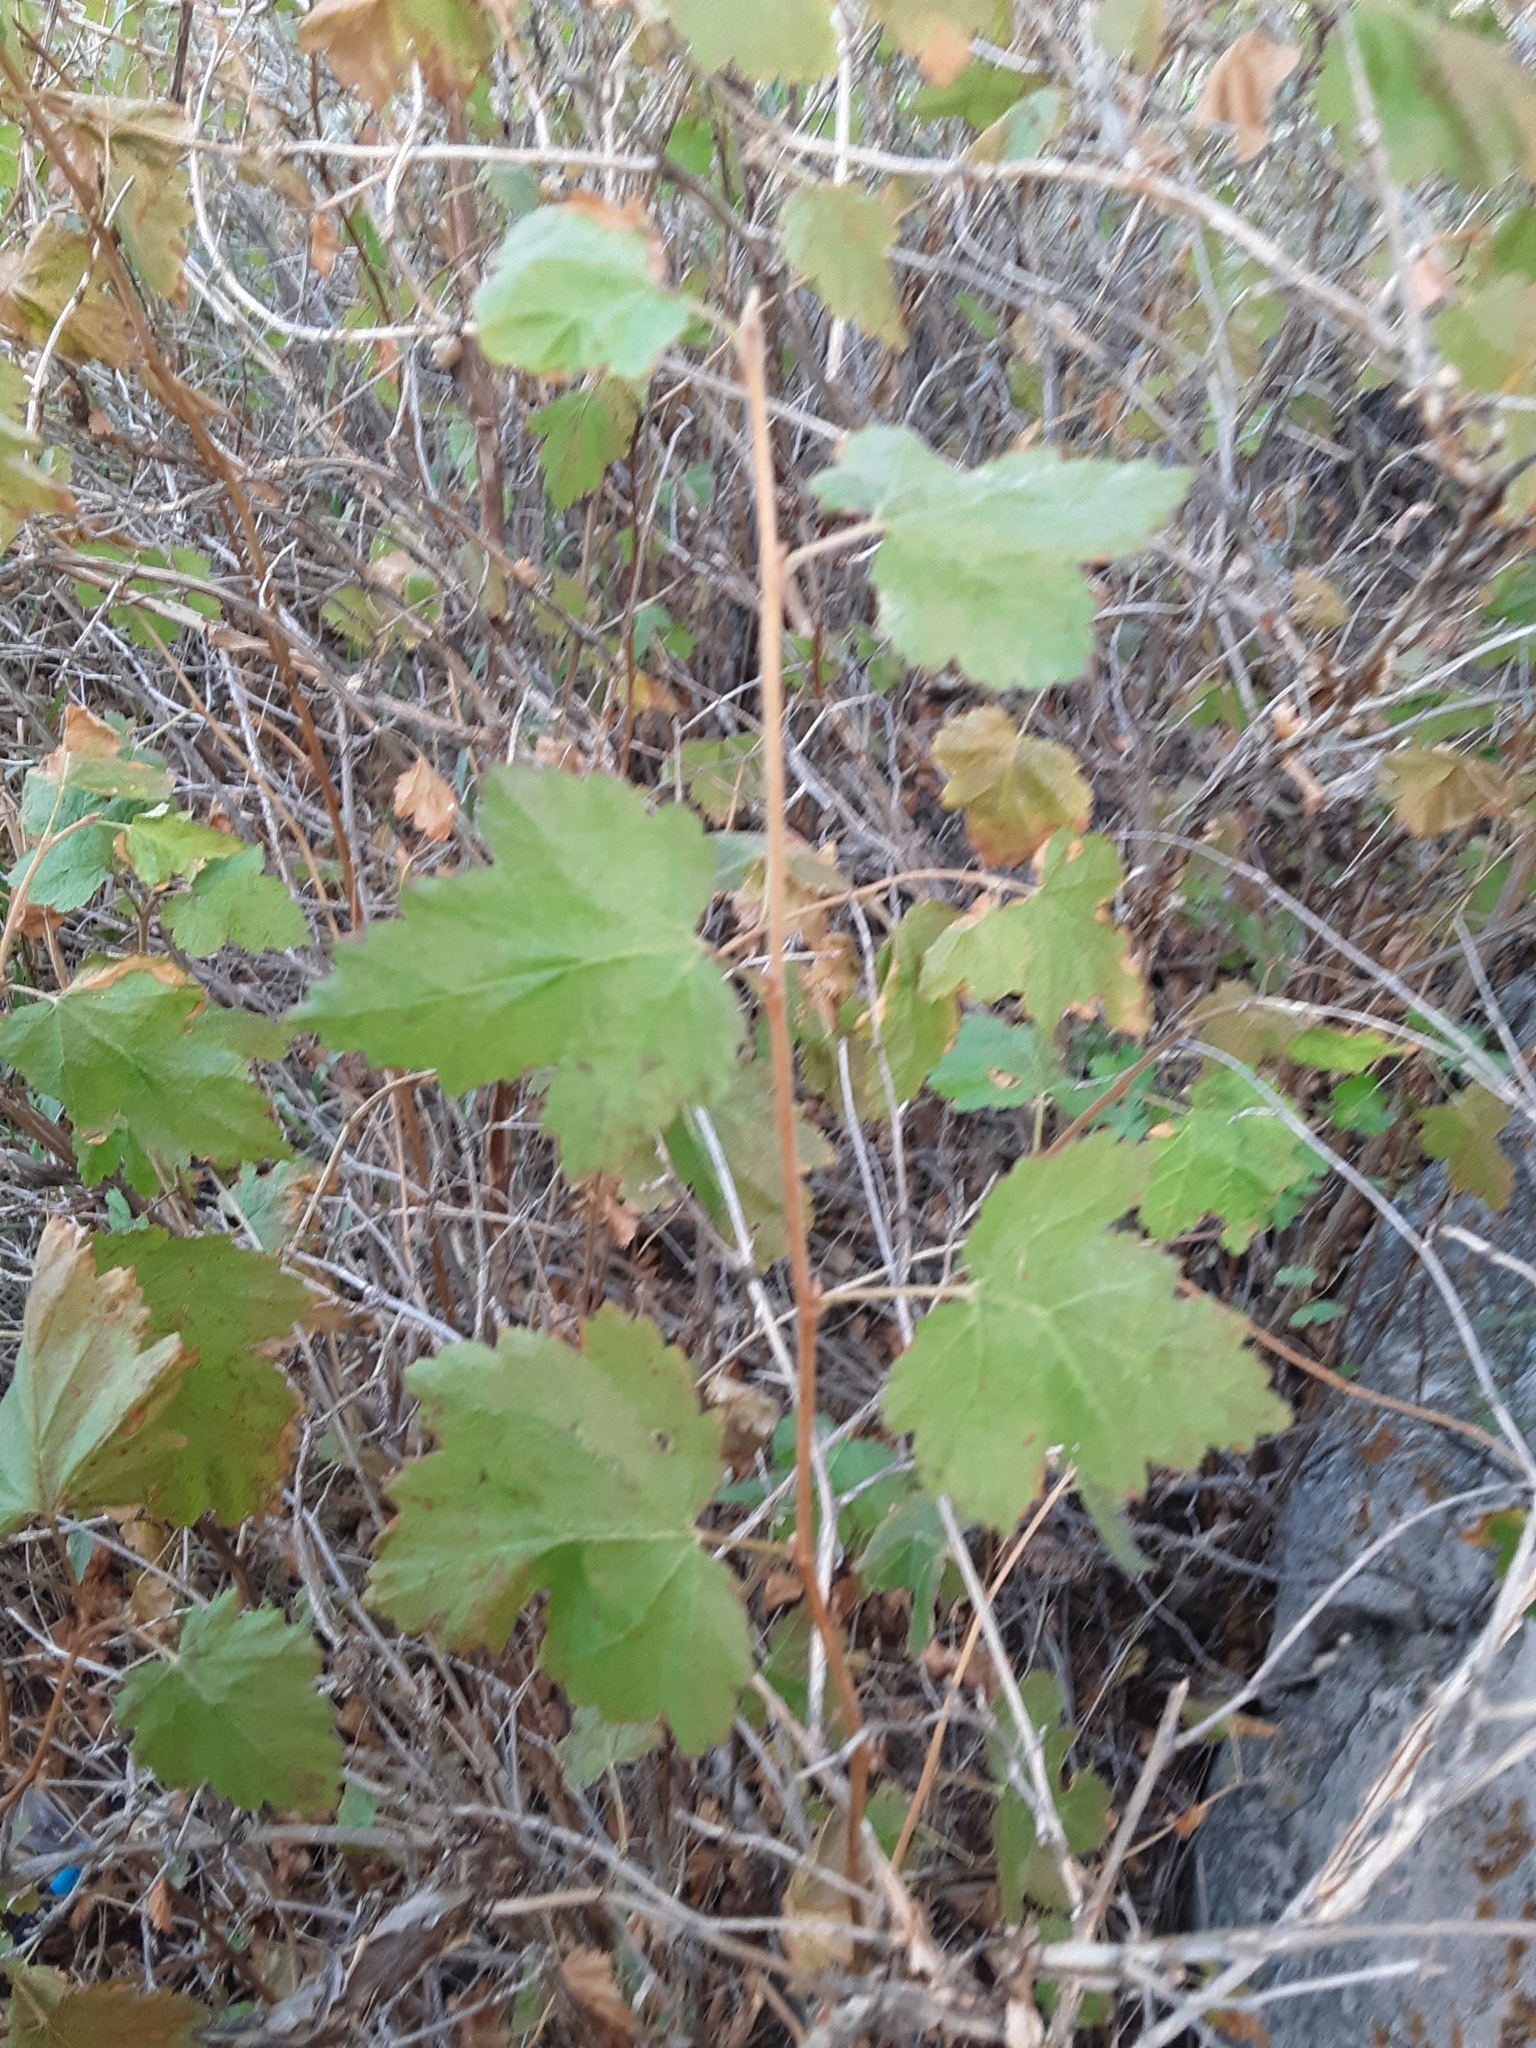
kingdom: Plantae
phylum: Tracheophyta
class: Magnoliopsida
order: Rosales
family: Rosaceae
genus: Physocarpus
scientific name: Physocarpus malvaceus
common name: Mallow ninebark
